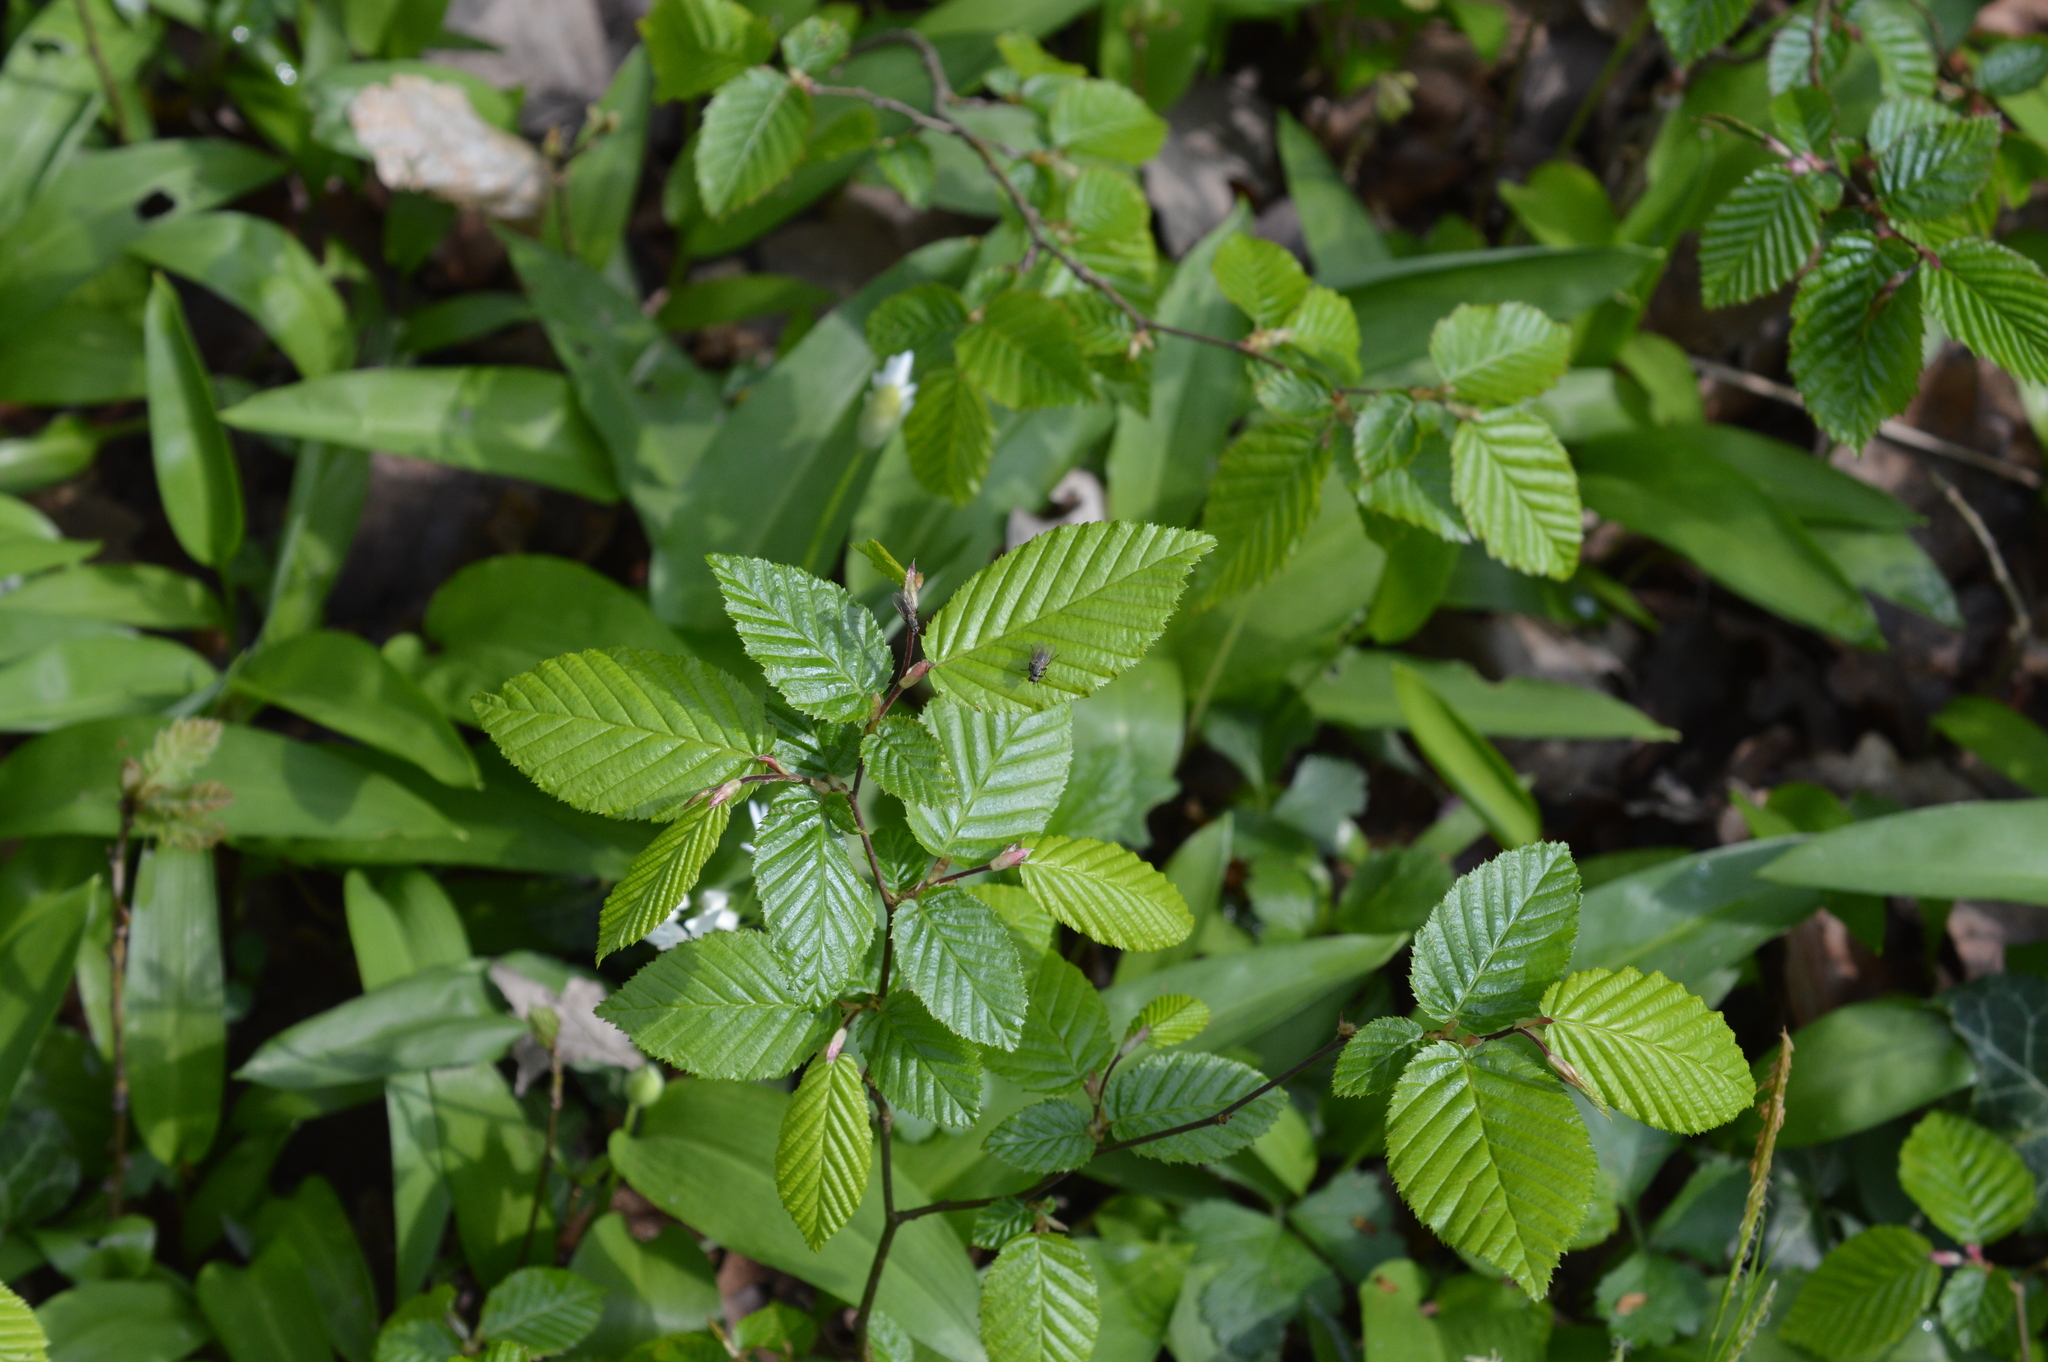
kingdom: Plantae
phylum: Tracheophyta
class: Magnoliopsida
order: Fagales
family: Betulaceae
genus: Carpinus
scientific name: Carpinus betulus
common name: Hornbeam
